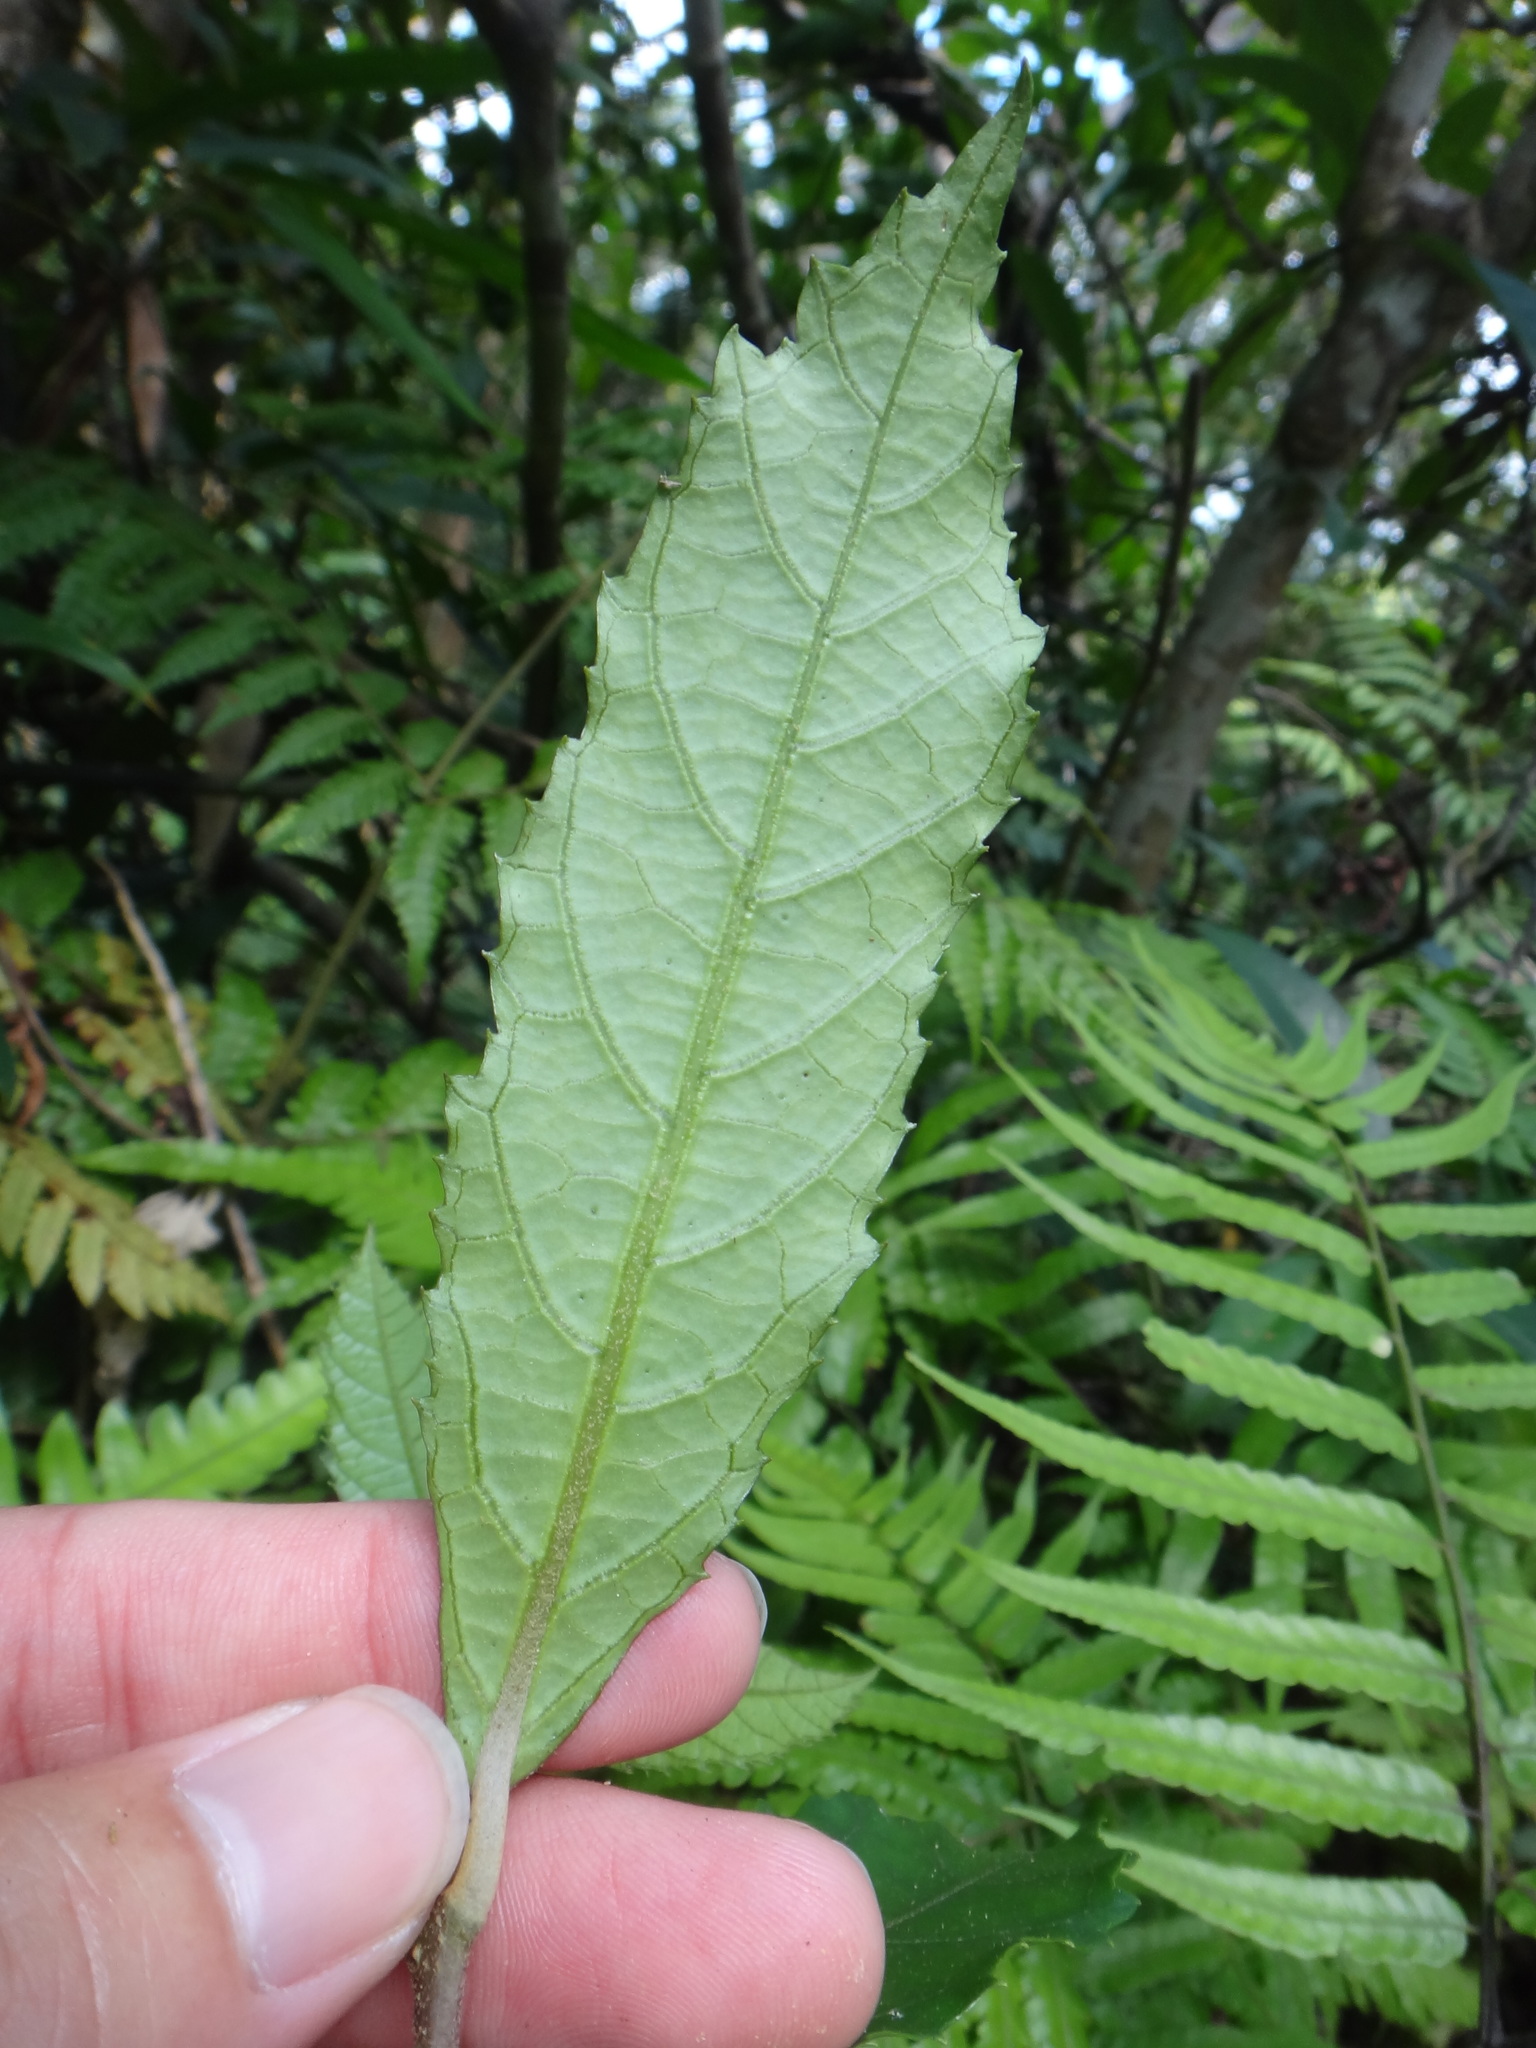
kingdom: Plantae
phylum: Tracheophyta
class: Magnoliopsida
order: Lamiales
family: Lamiaceae
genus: Callicarpa
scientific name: Callicarpa remotiserrulata
